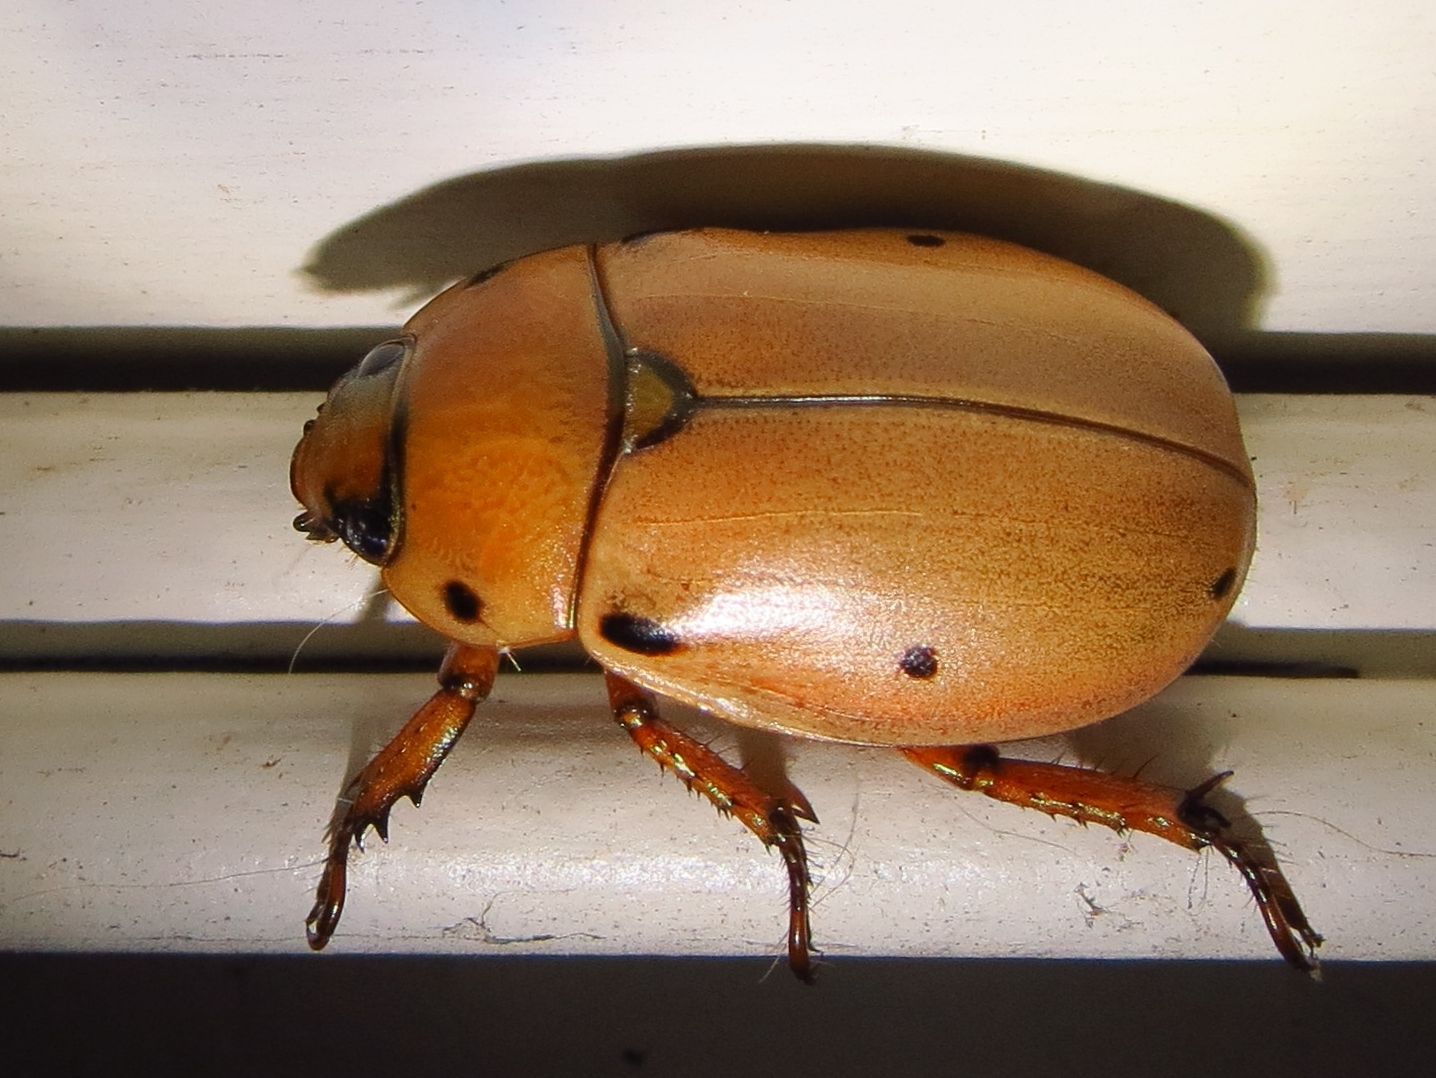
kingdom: Animalia
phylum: Arthropoda
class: Insecta
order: Coleoptera
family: Scarabaeidae
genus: Pelidnota
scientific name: Pelidnota punctata
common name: Grapevine beetle
